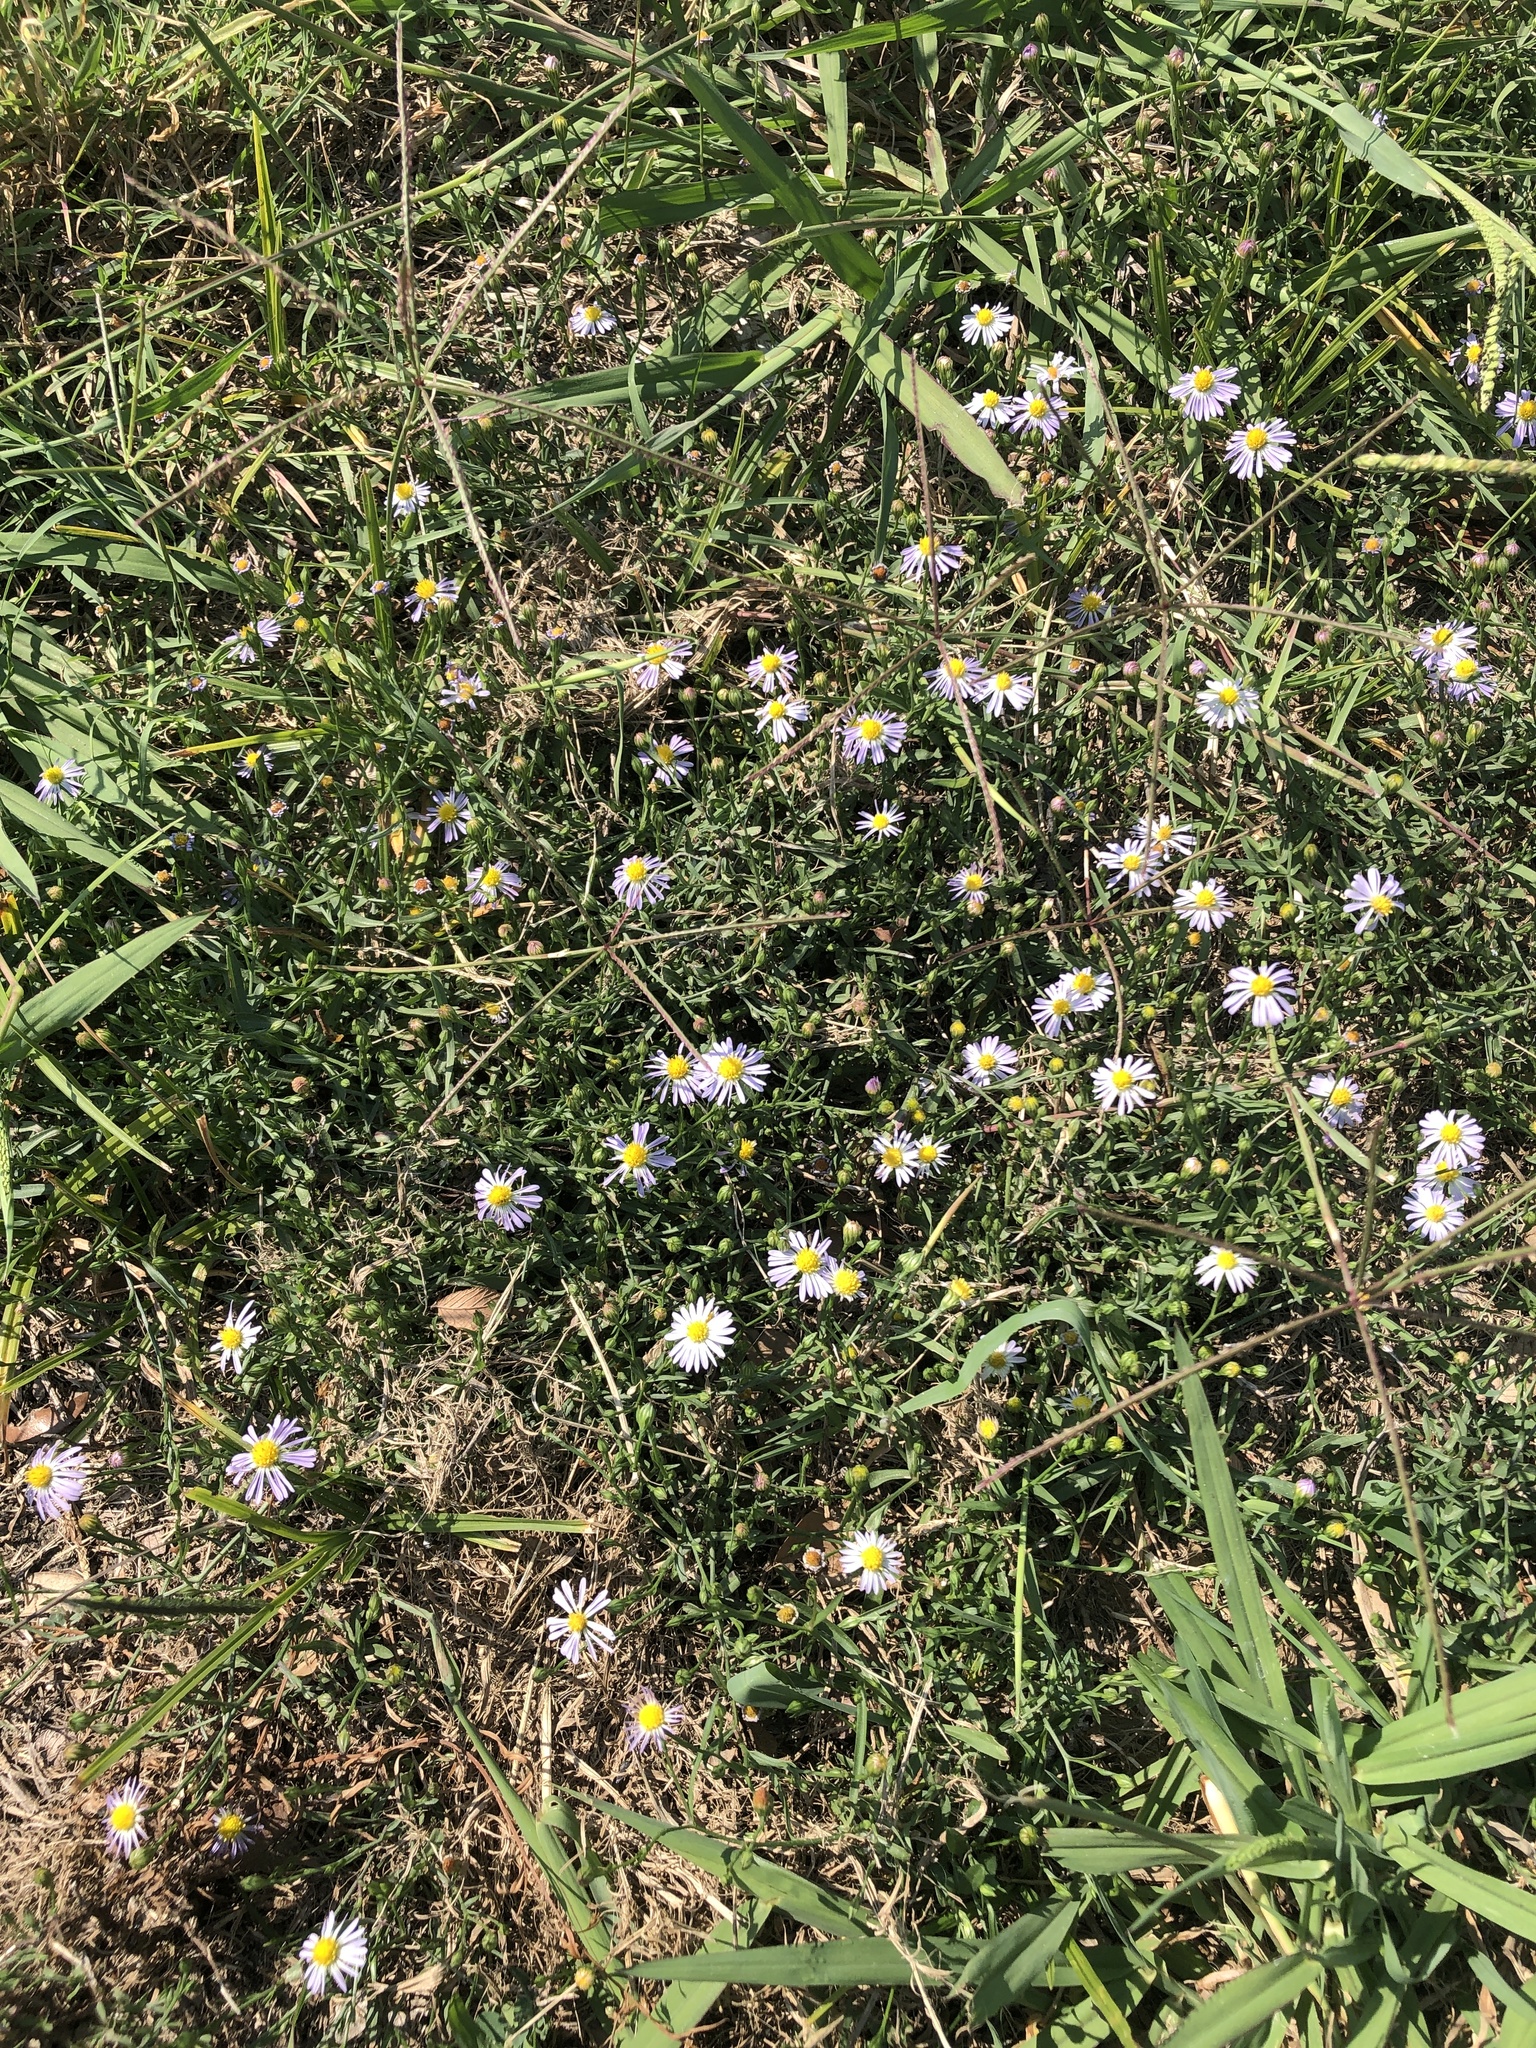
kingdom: Plantae
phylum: Tracheophyta
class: Magnoliopsida
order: Asterales
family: Asteraceae
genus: Symphyotrichum
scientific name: Symphyotrichum divaricatum
